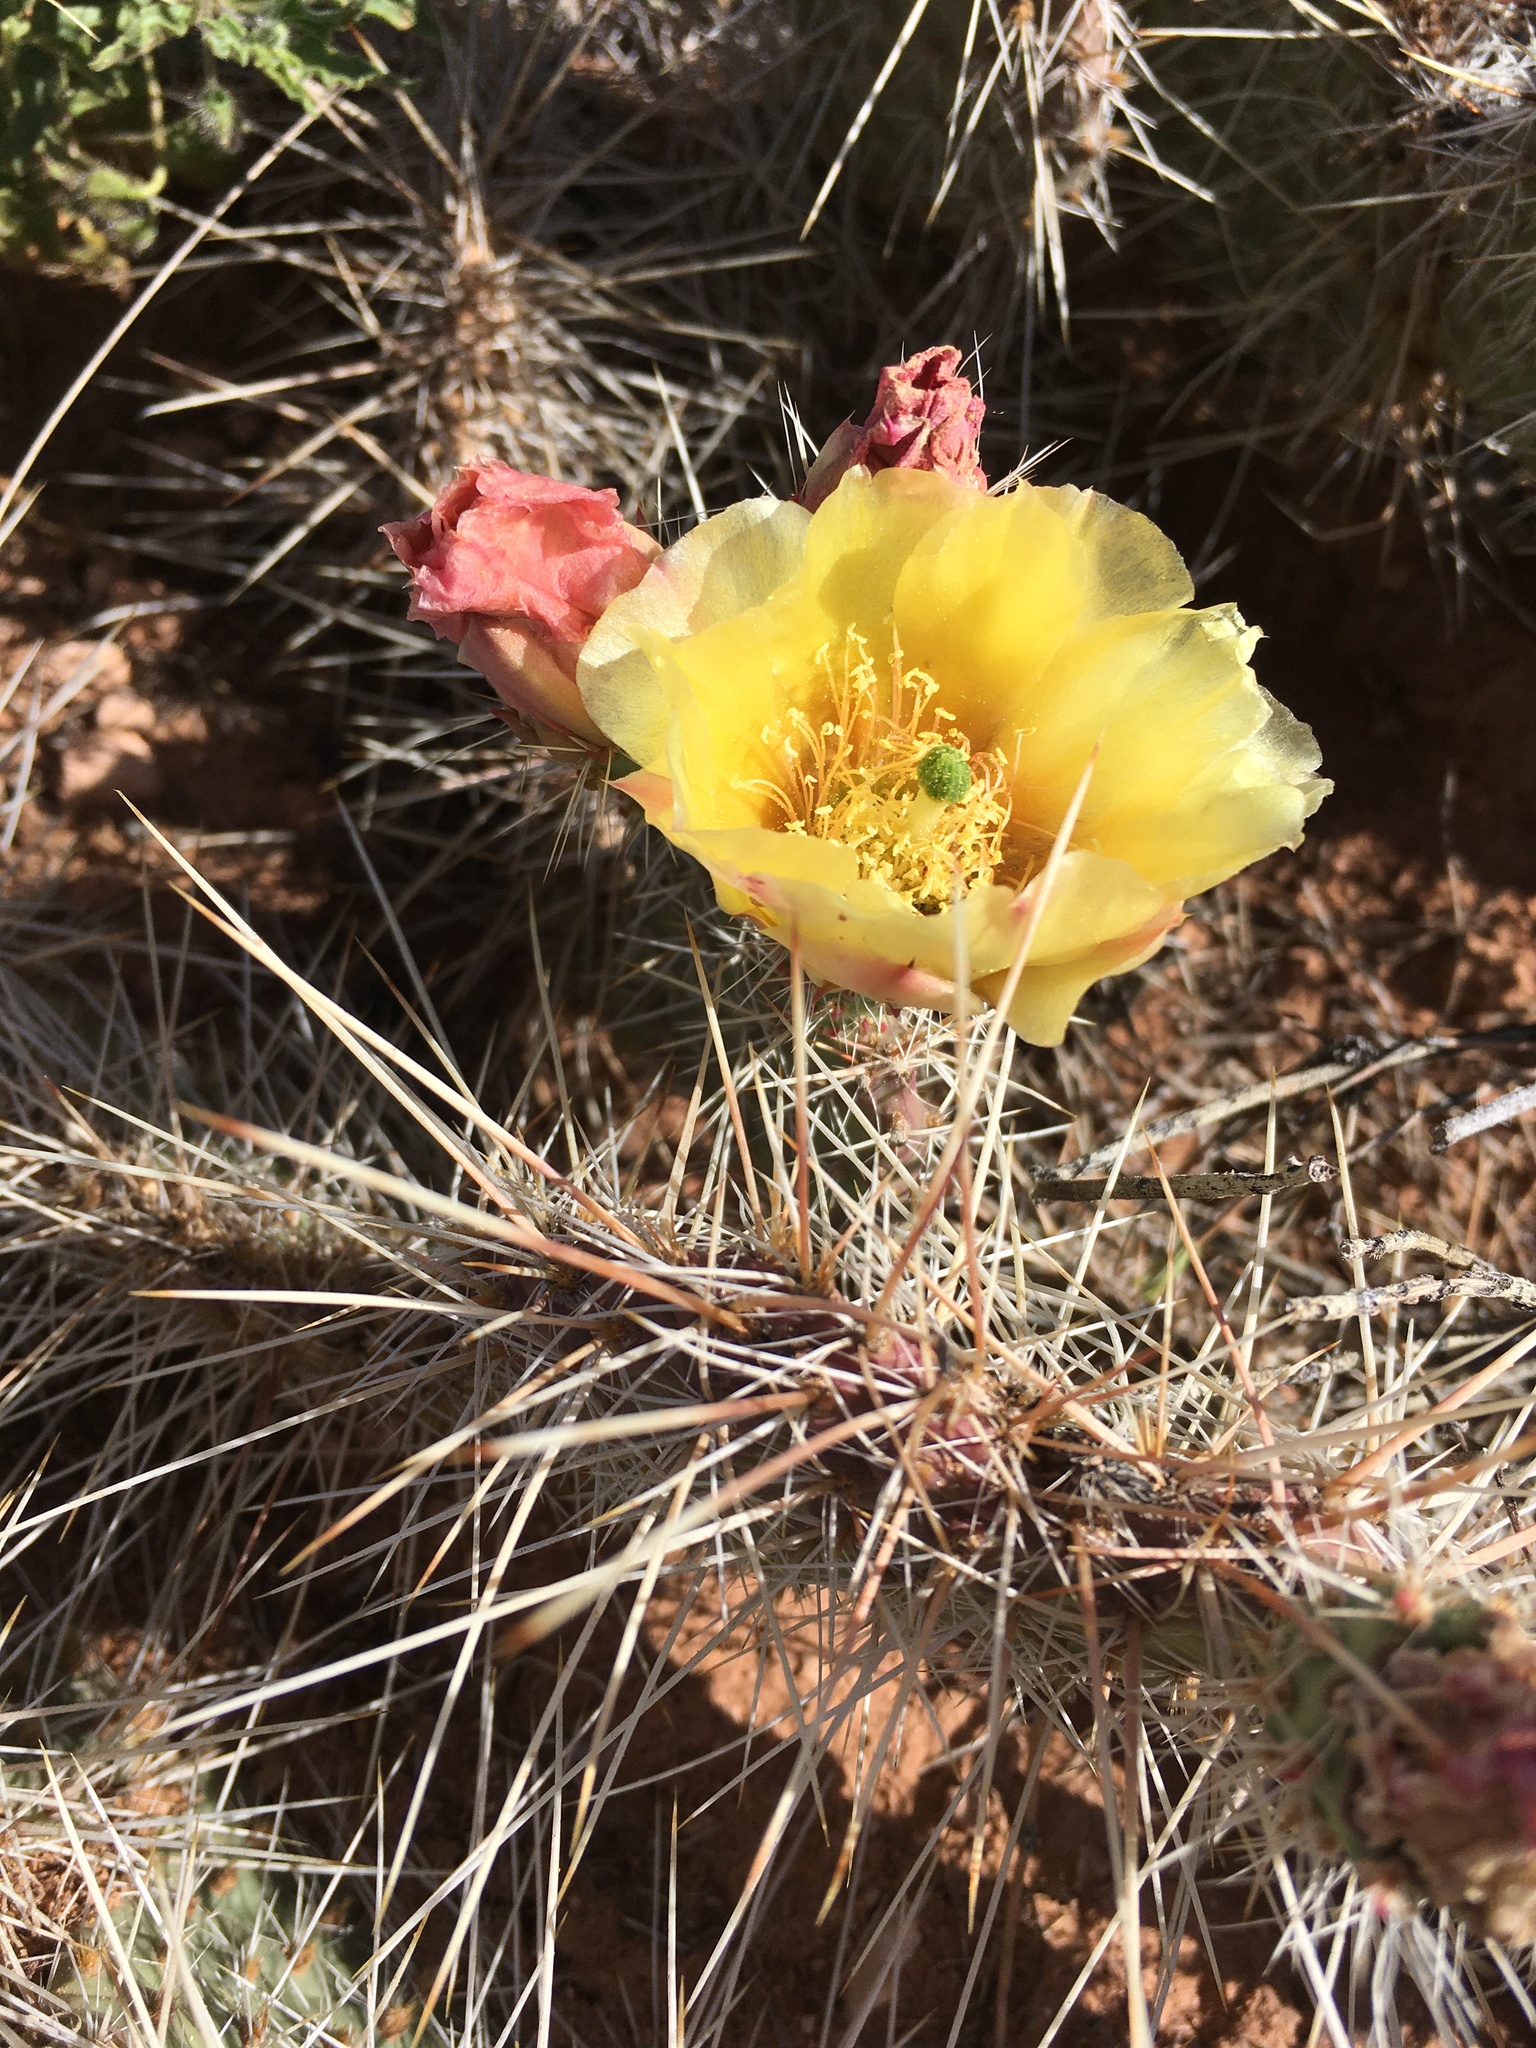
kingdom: Plantae
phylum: Tracheophyta
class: Magnoliopsida
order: Caryophyllales
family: Cactaceae
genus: Opuntia
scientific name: Opuntia polyacantha
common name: Plains prickly-pear
